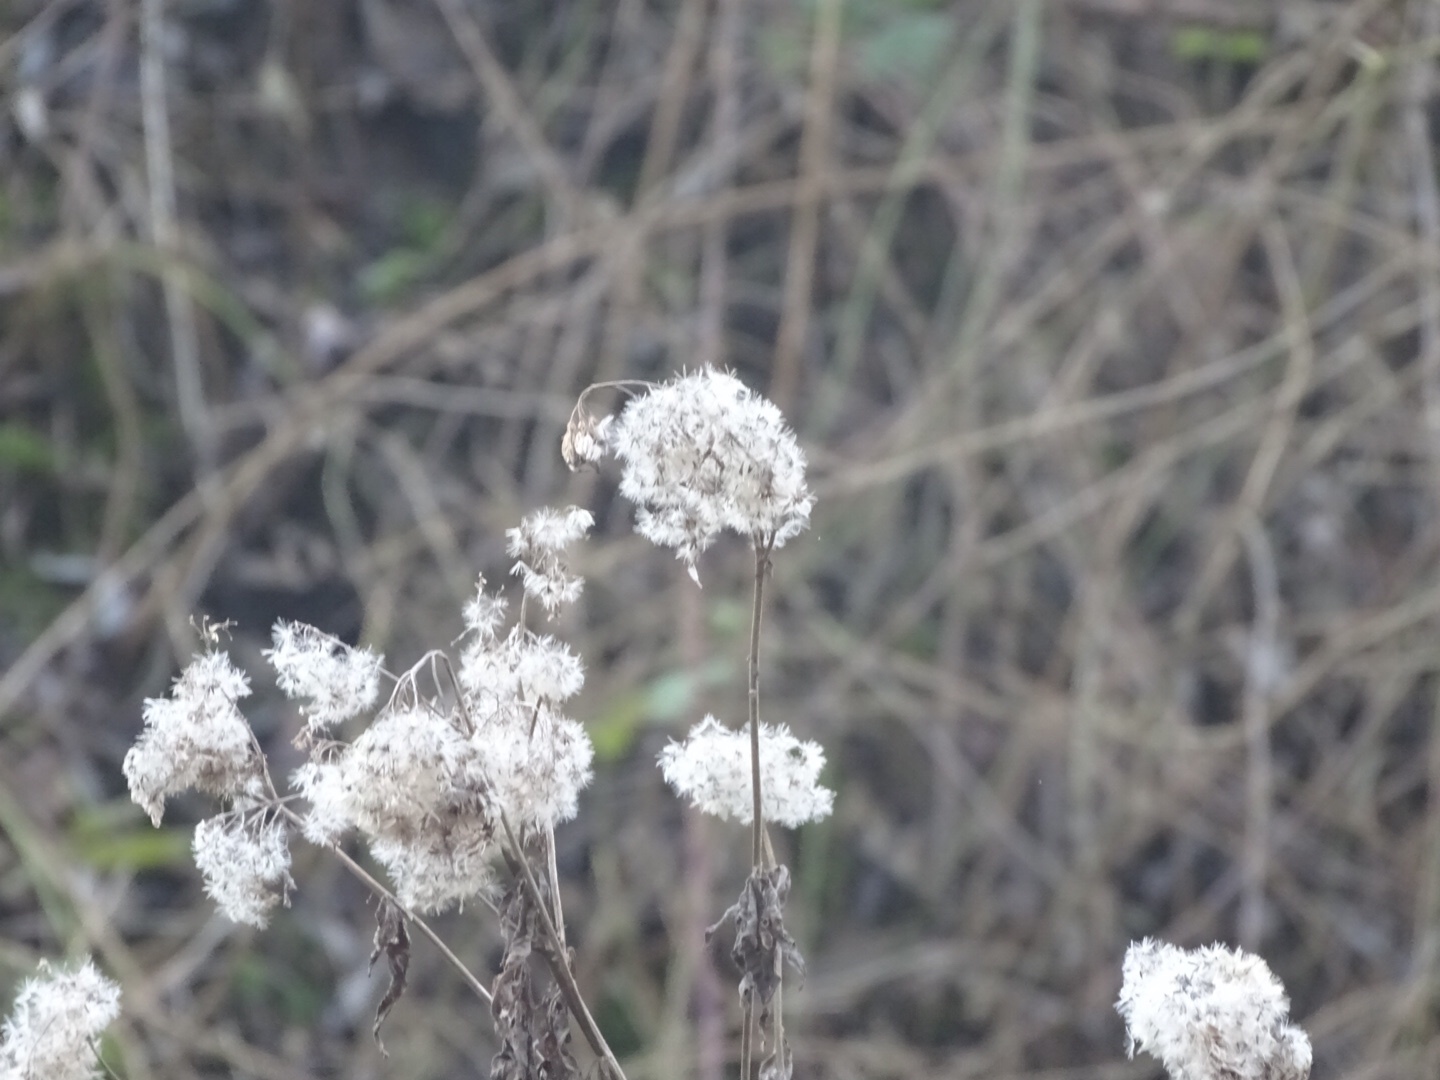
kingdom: Plantae
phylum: Tracheophyta
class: Magnoliopsida
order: Ranunculales
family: Ranunculaceae
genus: Clematis
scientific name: Clematis vitalba
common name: Evergreen clematis
